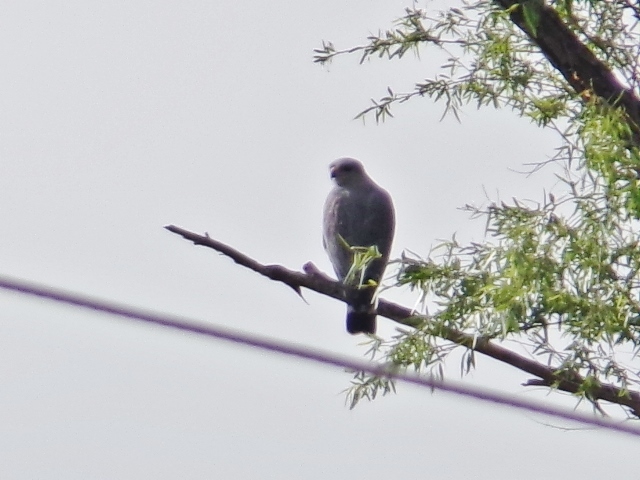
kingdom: Animalia
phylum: Chordata
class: Aves
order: Accipitriformes
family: Accipitridae
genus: Buteo
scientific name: Buteo nitidus
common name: Grey-lined hawk
